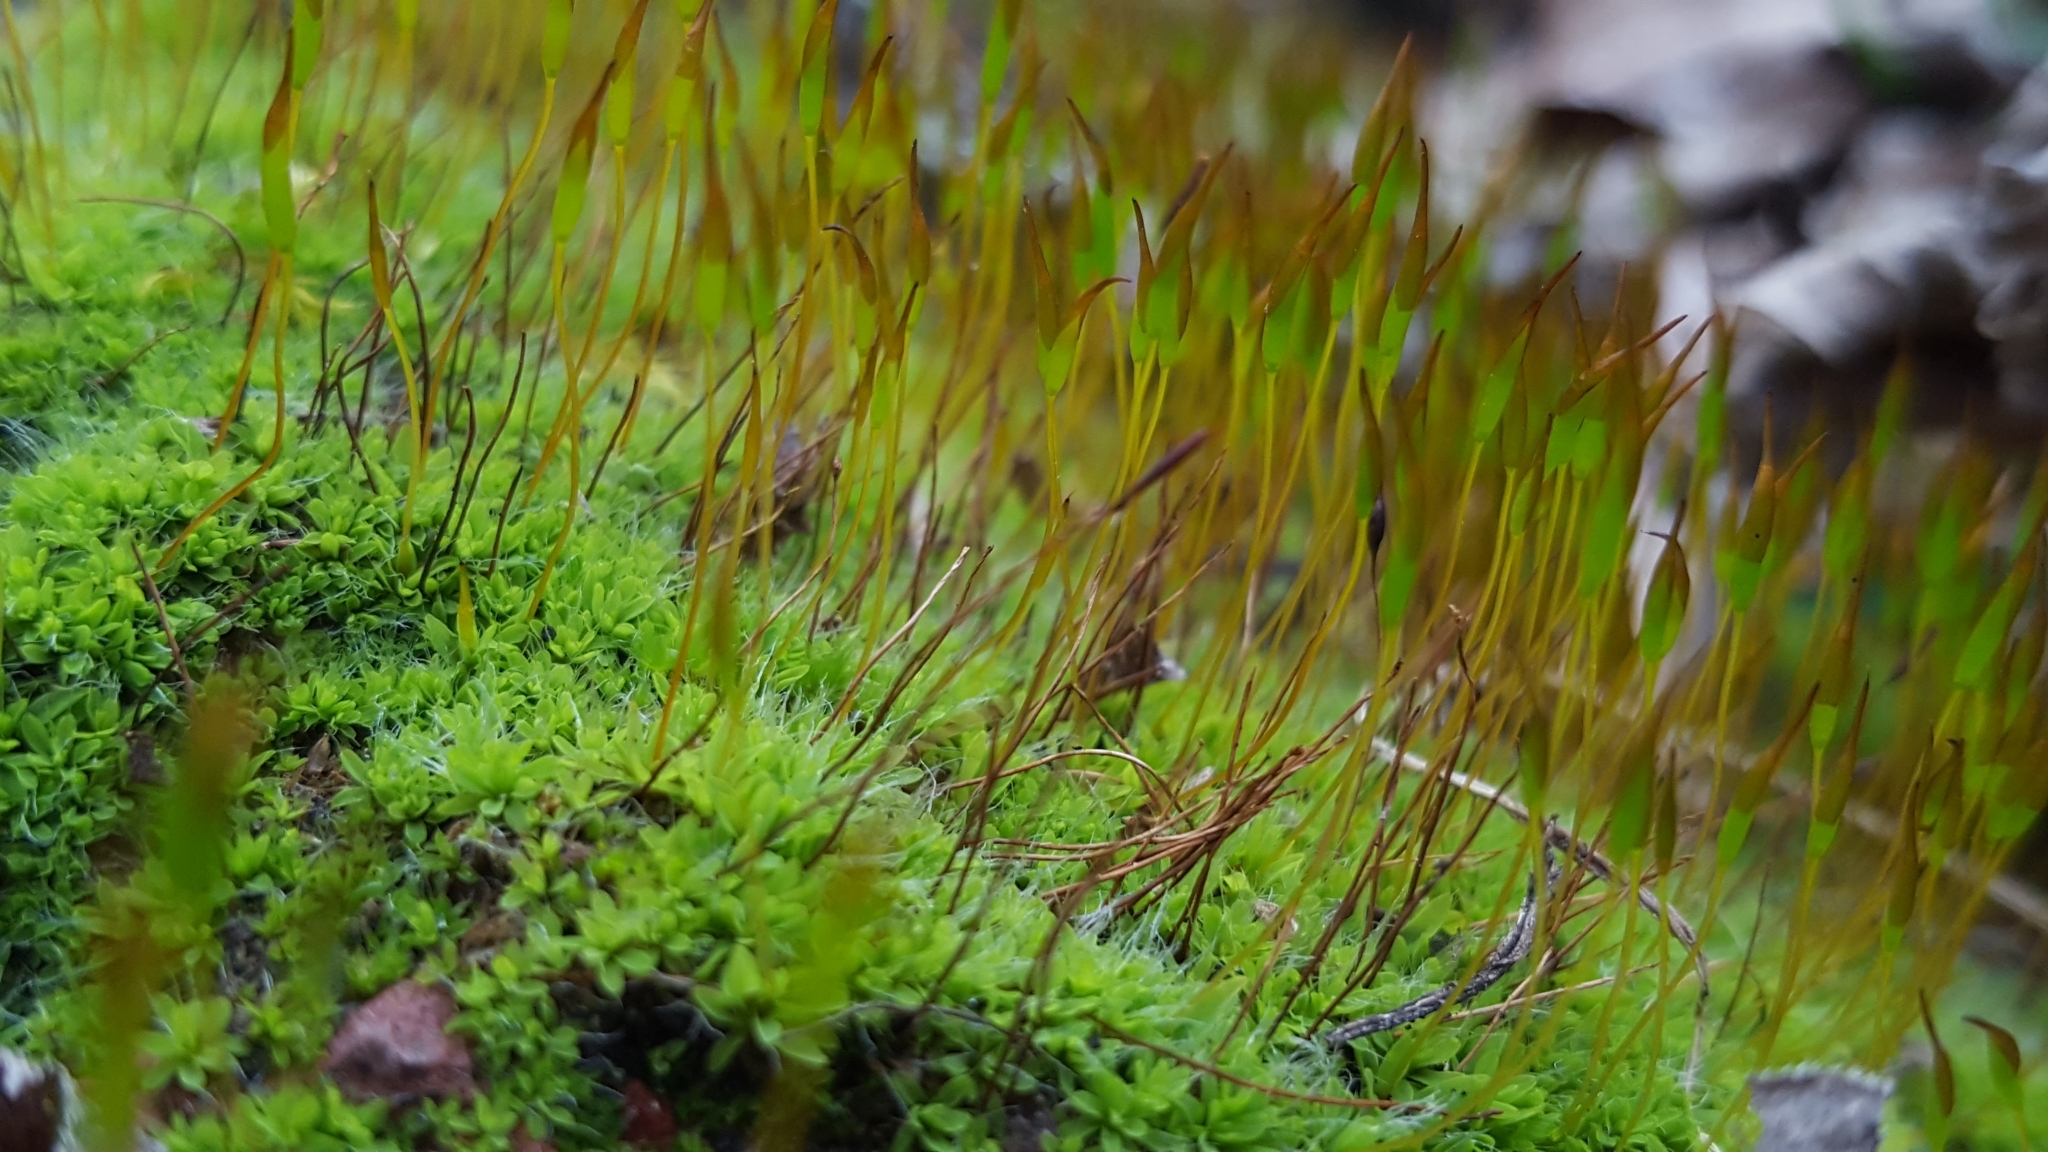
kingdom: Plantae
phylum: Bryophyta
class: Bryopsida
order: Pottiales
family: Pottiaceae
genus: Tortula
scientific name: Tortula muralis
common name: Wall screw-moss
